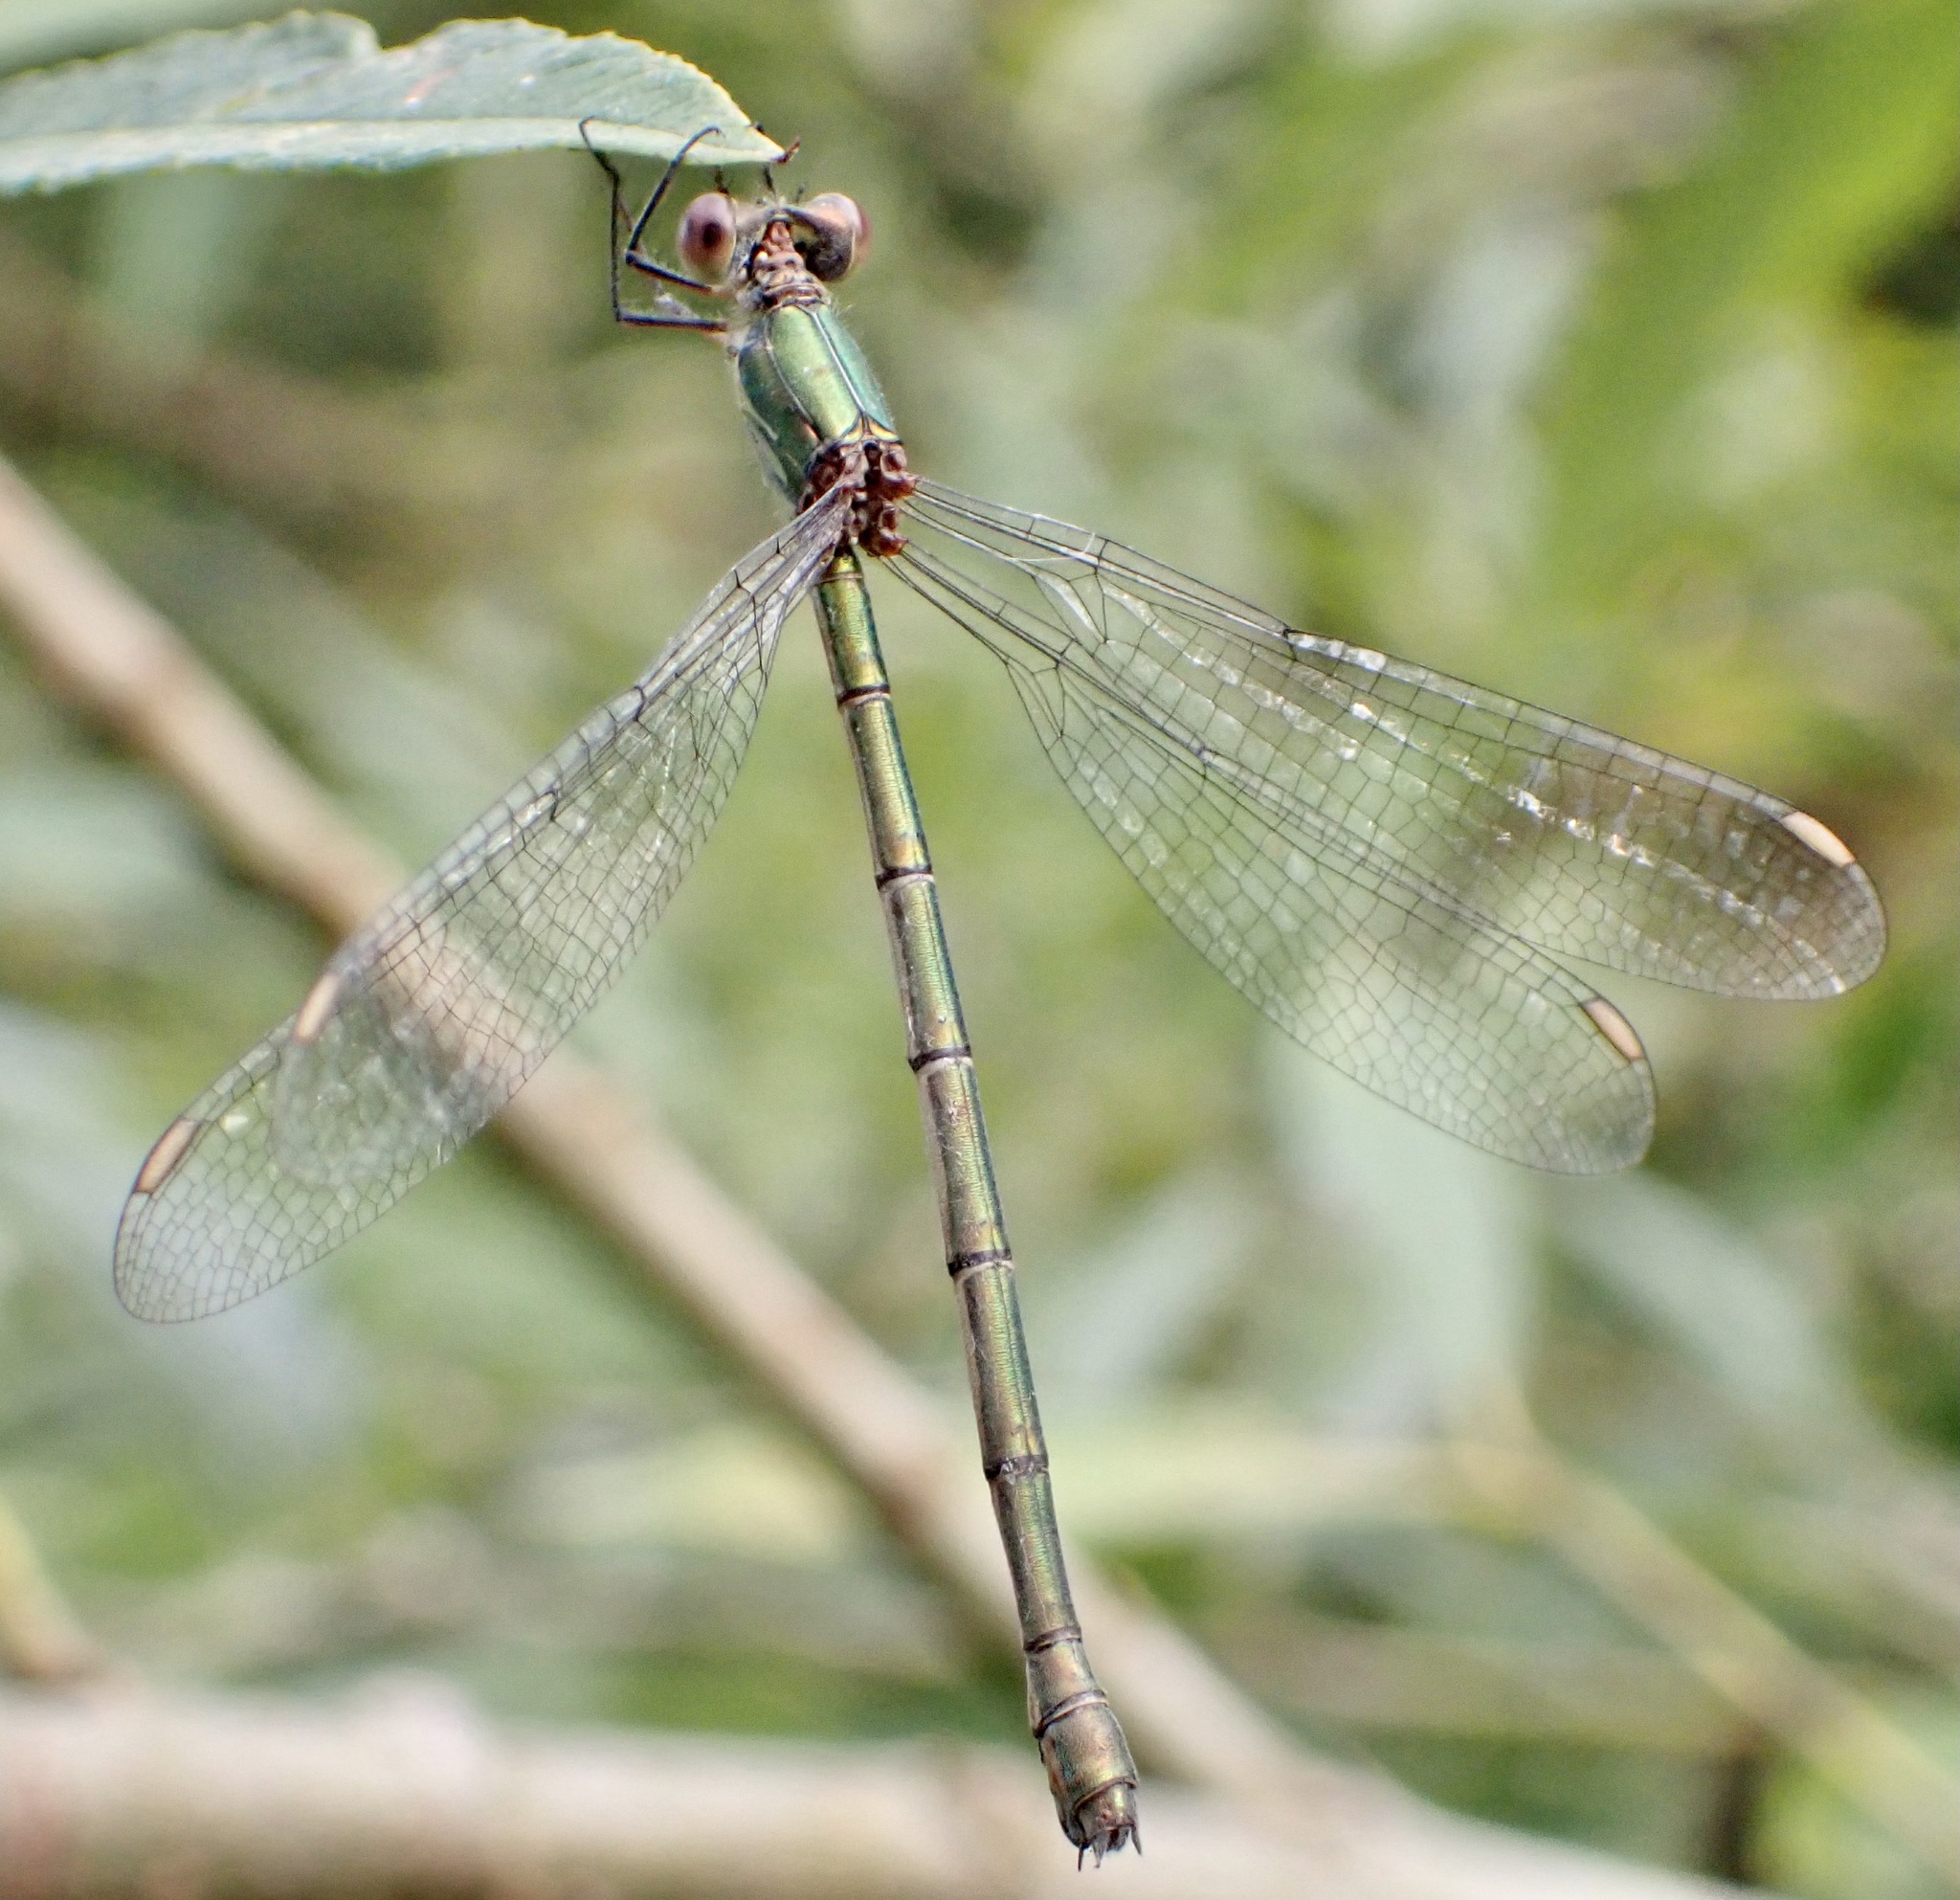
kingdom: Animalia
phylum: Arthropoda
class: Insecta
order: Odonata
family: Lestidae
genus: Chalcolestes
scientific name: Chalcolestes viridis
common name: Green emerald damselfly
